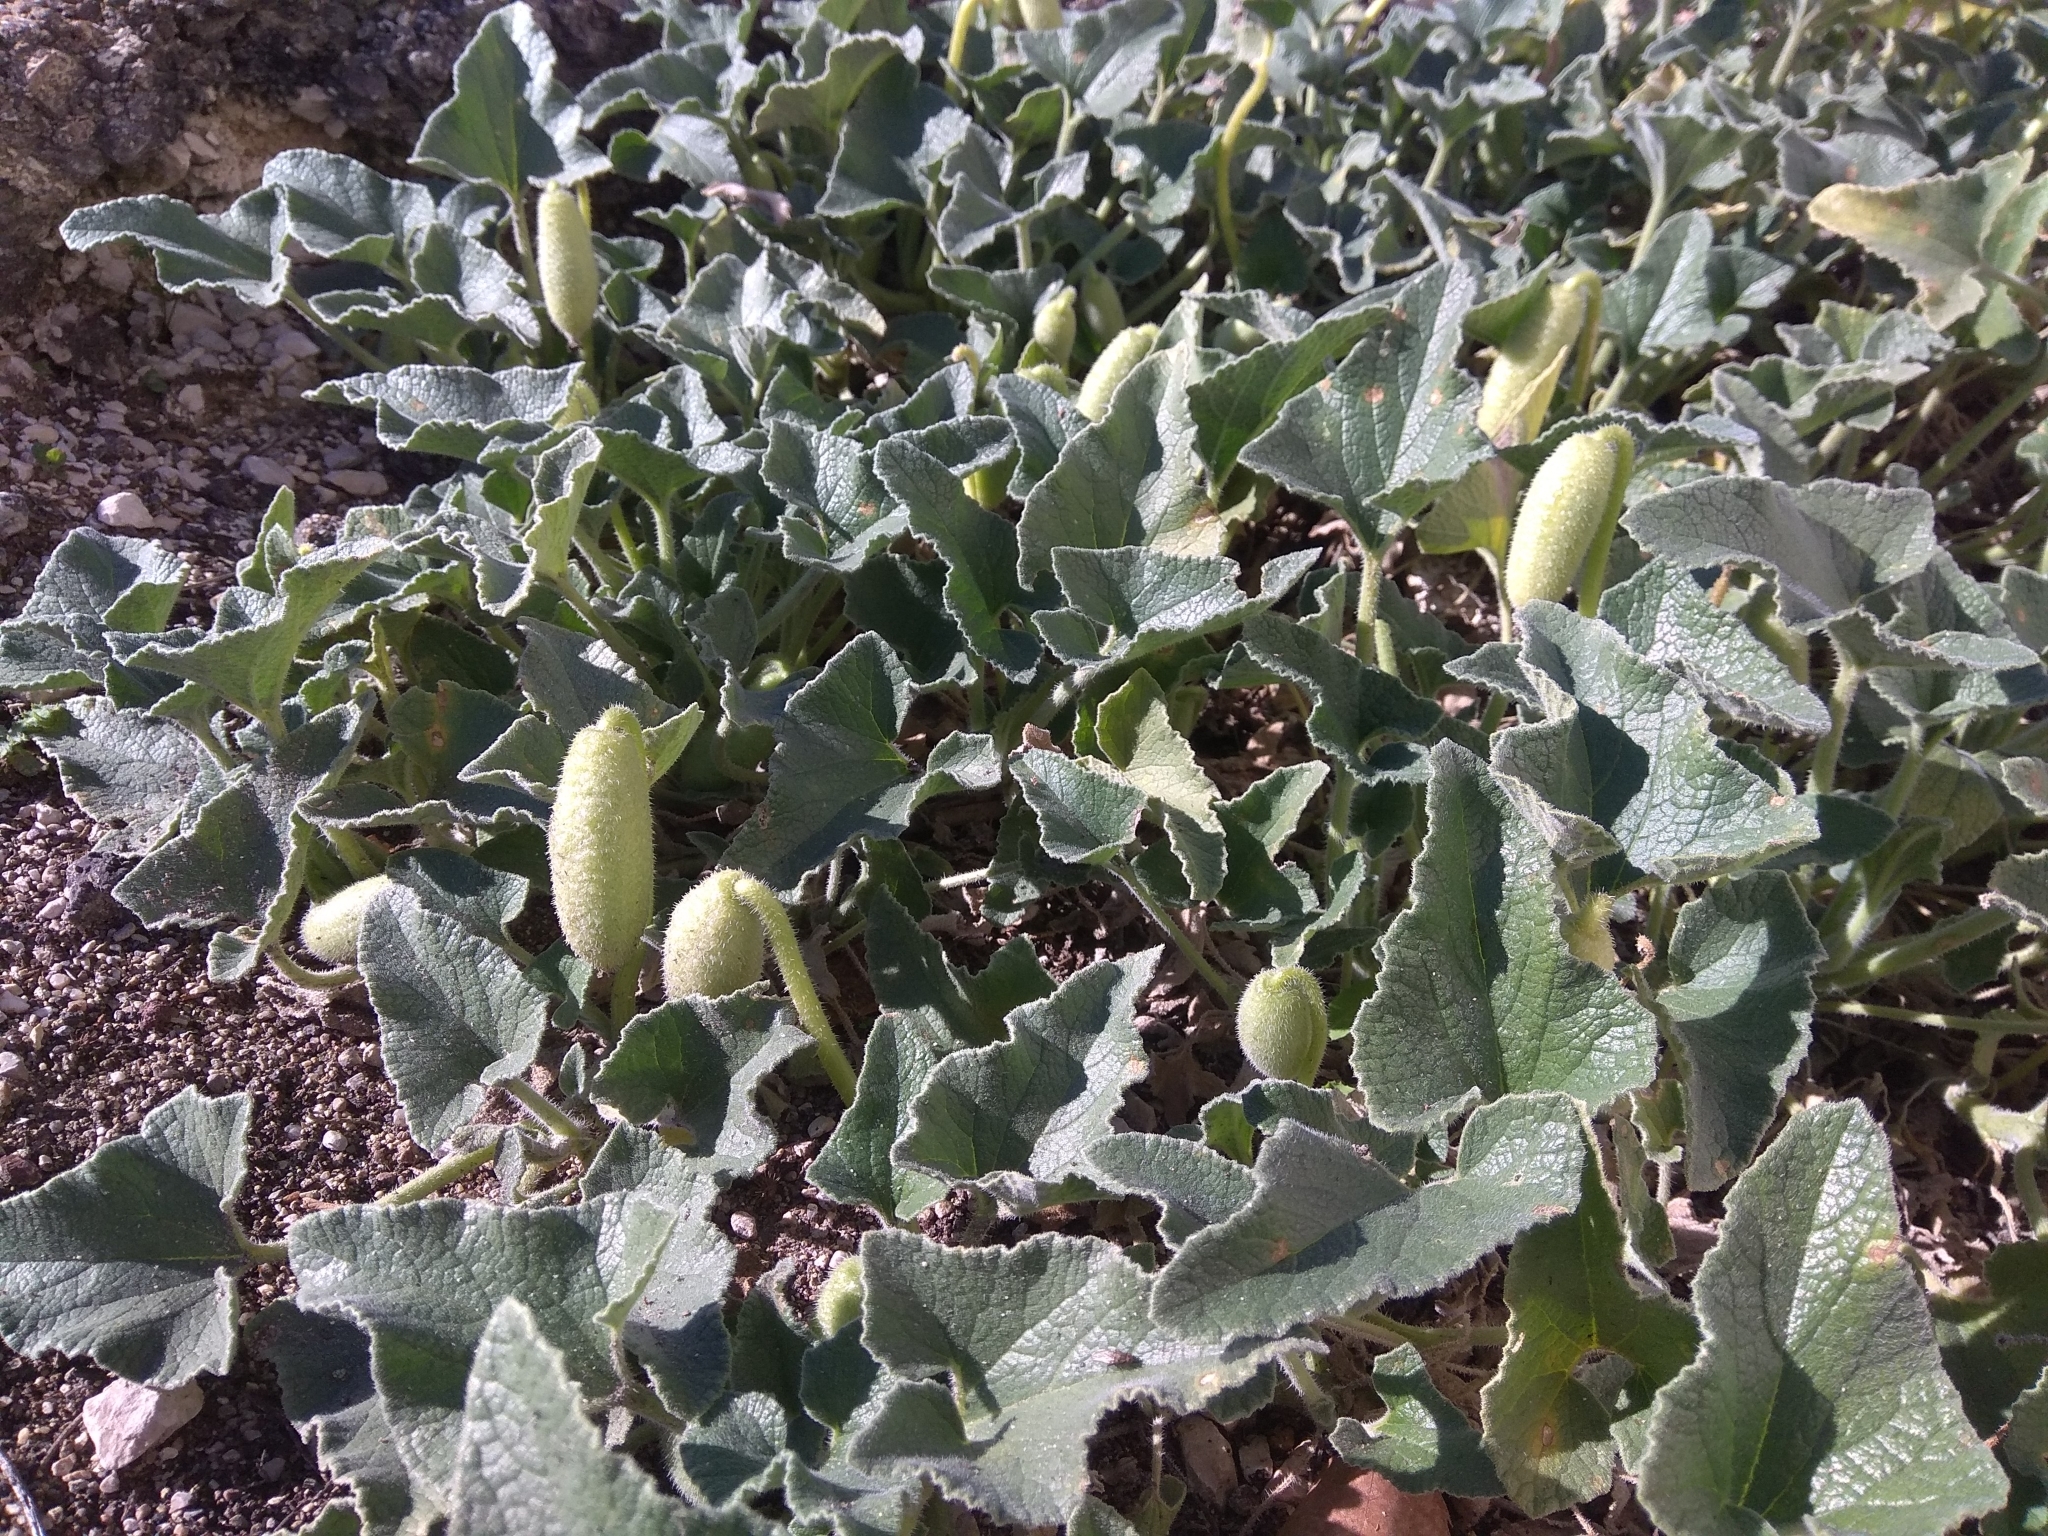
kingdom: Plantae
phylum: Tracheophyta
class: Magnoliopsida
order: Cucurbitales
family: Cucurbitaceae
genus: Ecballium
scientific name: Ecballium elaterium
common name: Squirting cucumber
